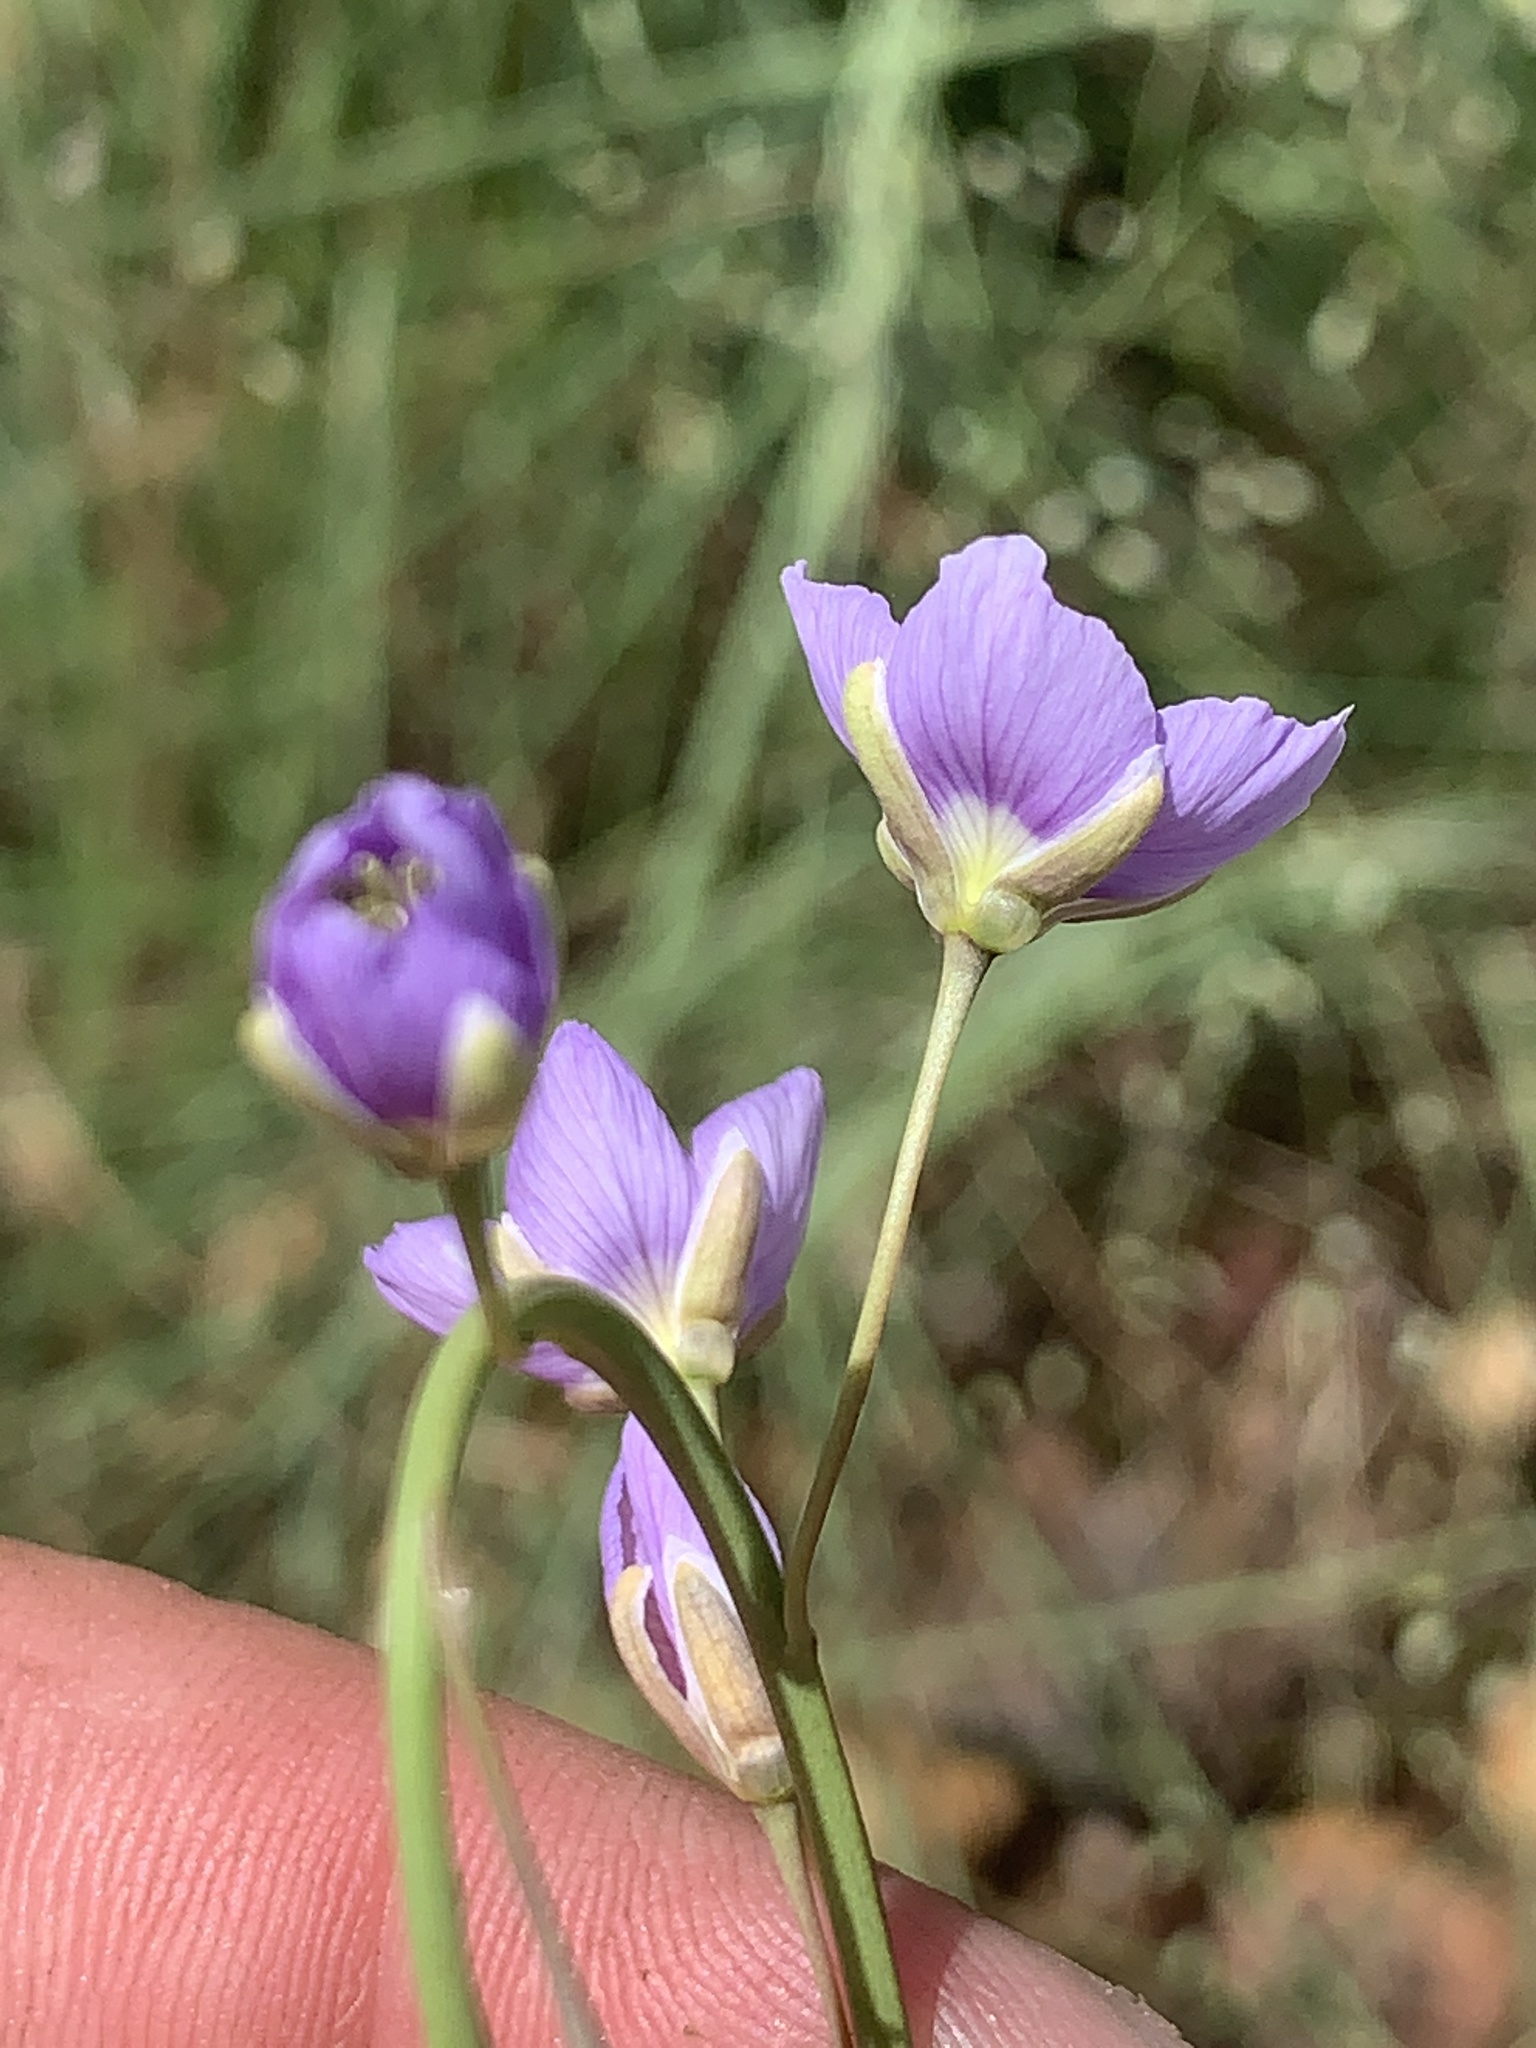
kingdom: Plantae
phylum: Tracheophyta
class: Magnoliopsida
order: Brassicales
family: Brassicaceae
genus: Heliophila
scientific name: Heliophila rigidiuscula
